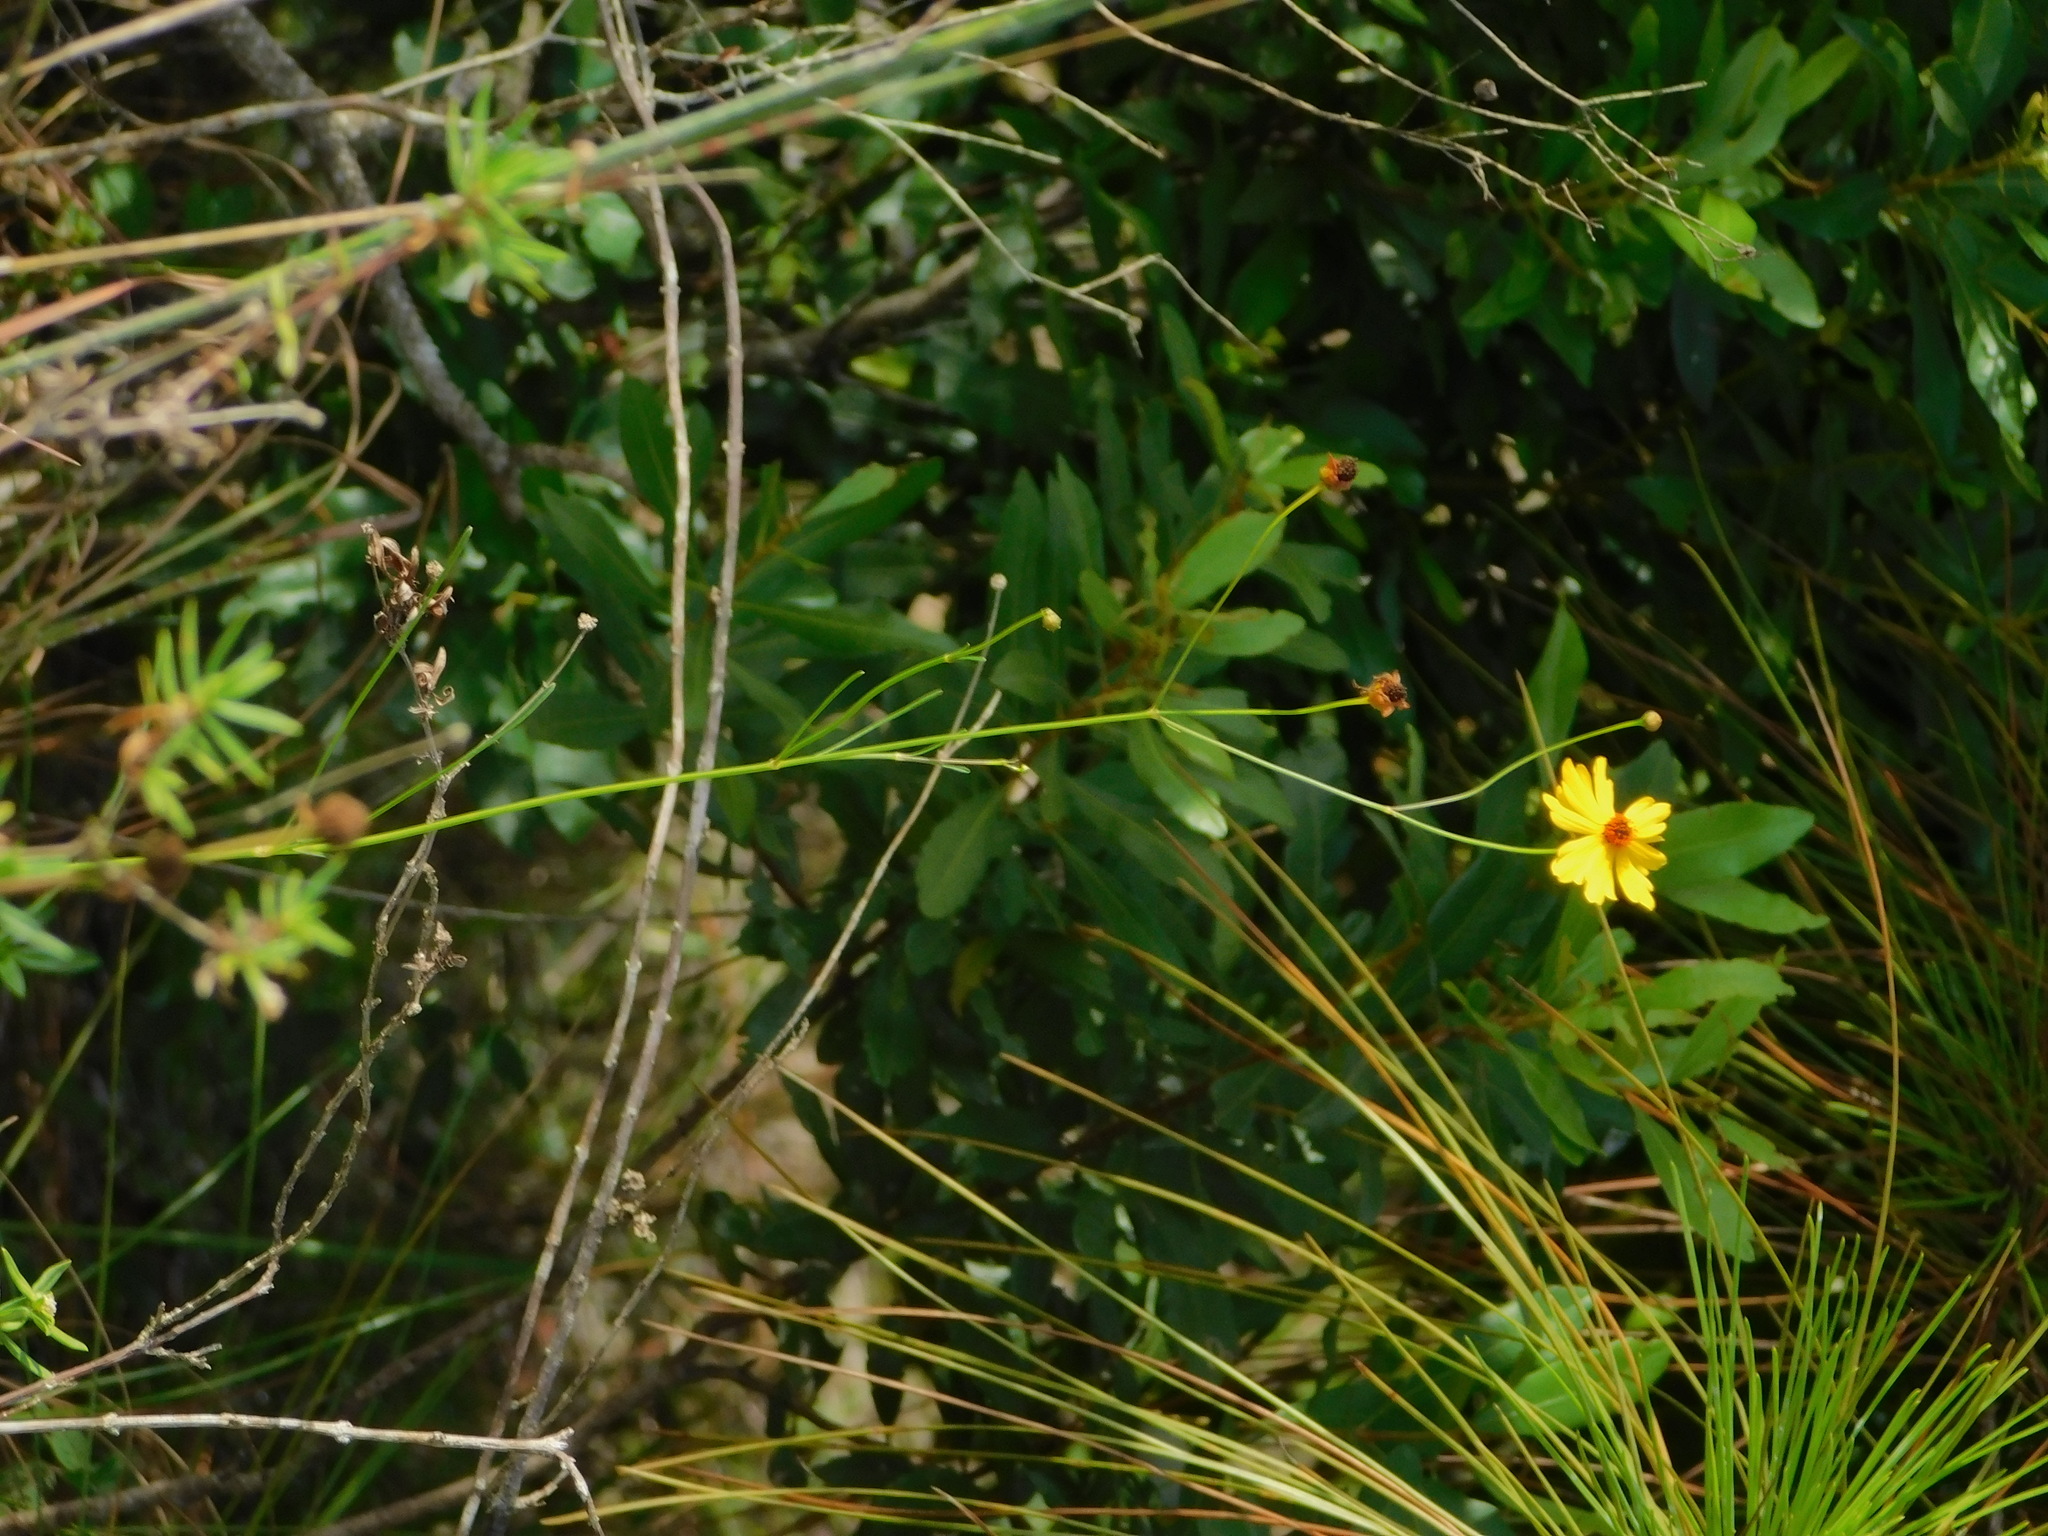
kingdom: Plantae
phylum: Tracheophyta
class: Magnoliopsida
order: Asterales
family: Asteraceae
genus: Coreopsis
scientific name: Coreopsis leavenworthii
